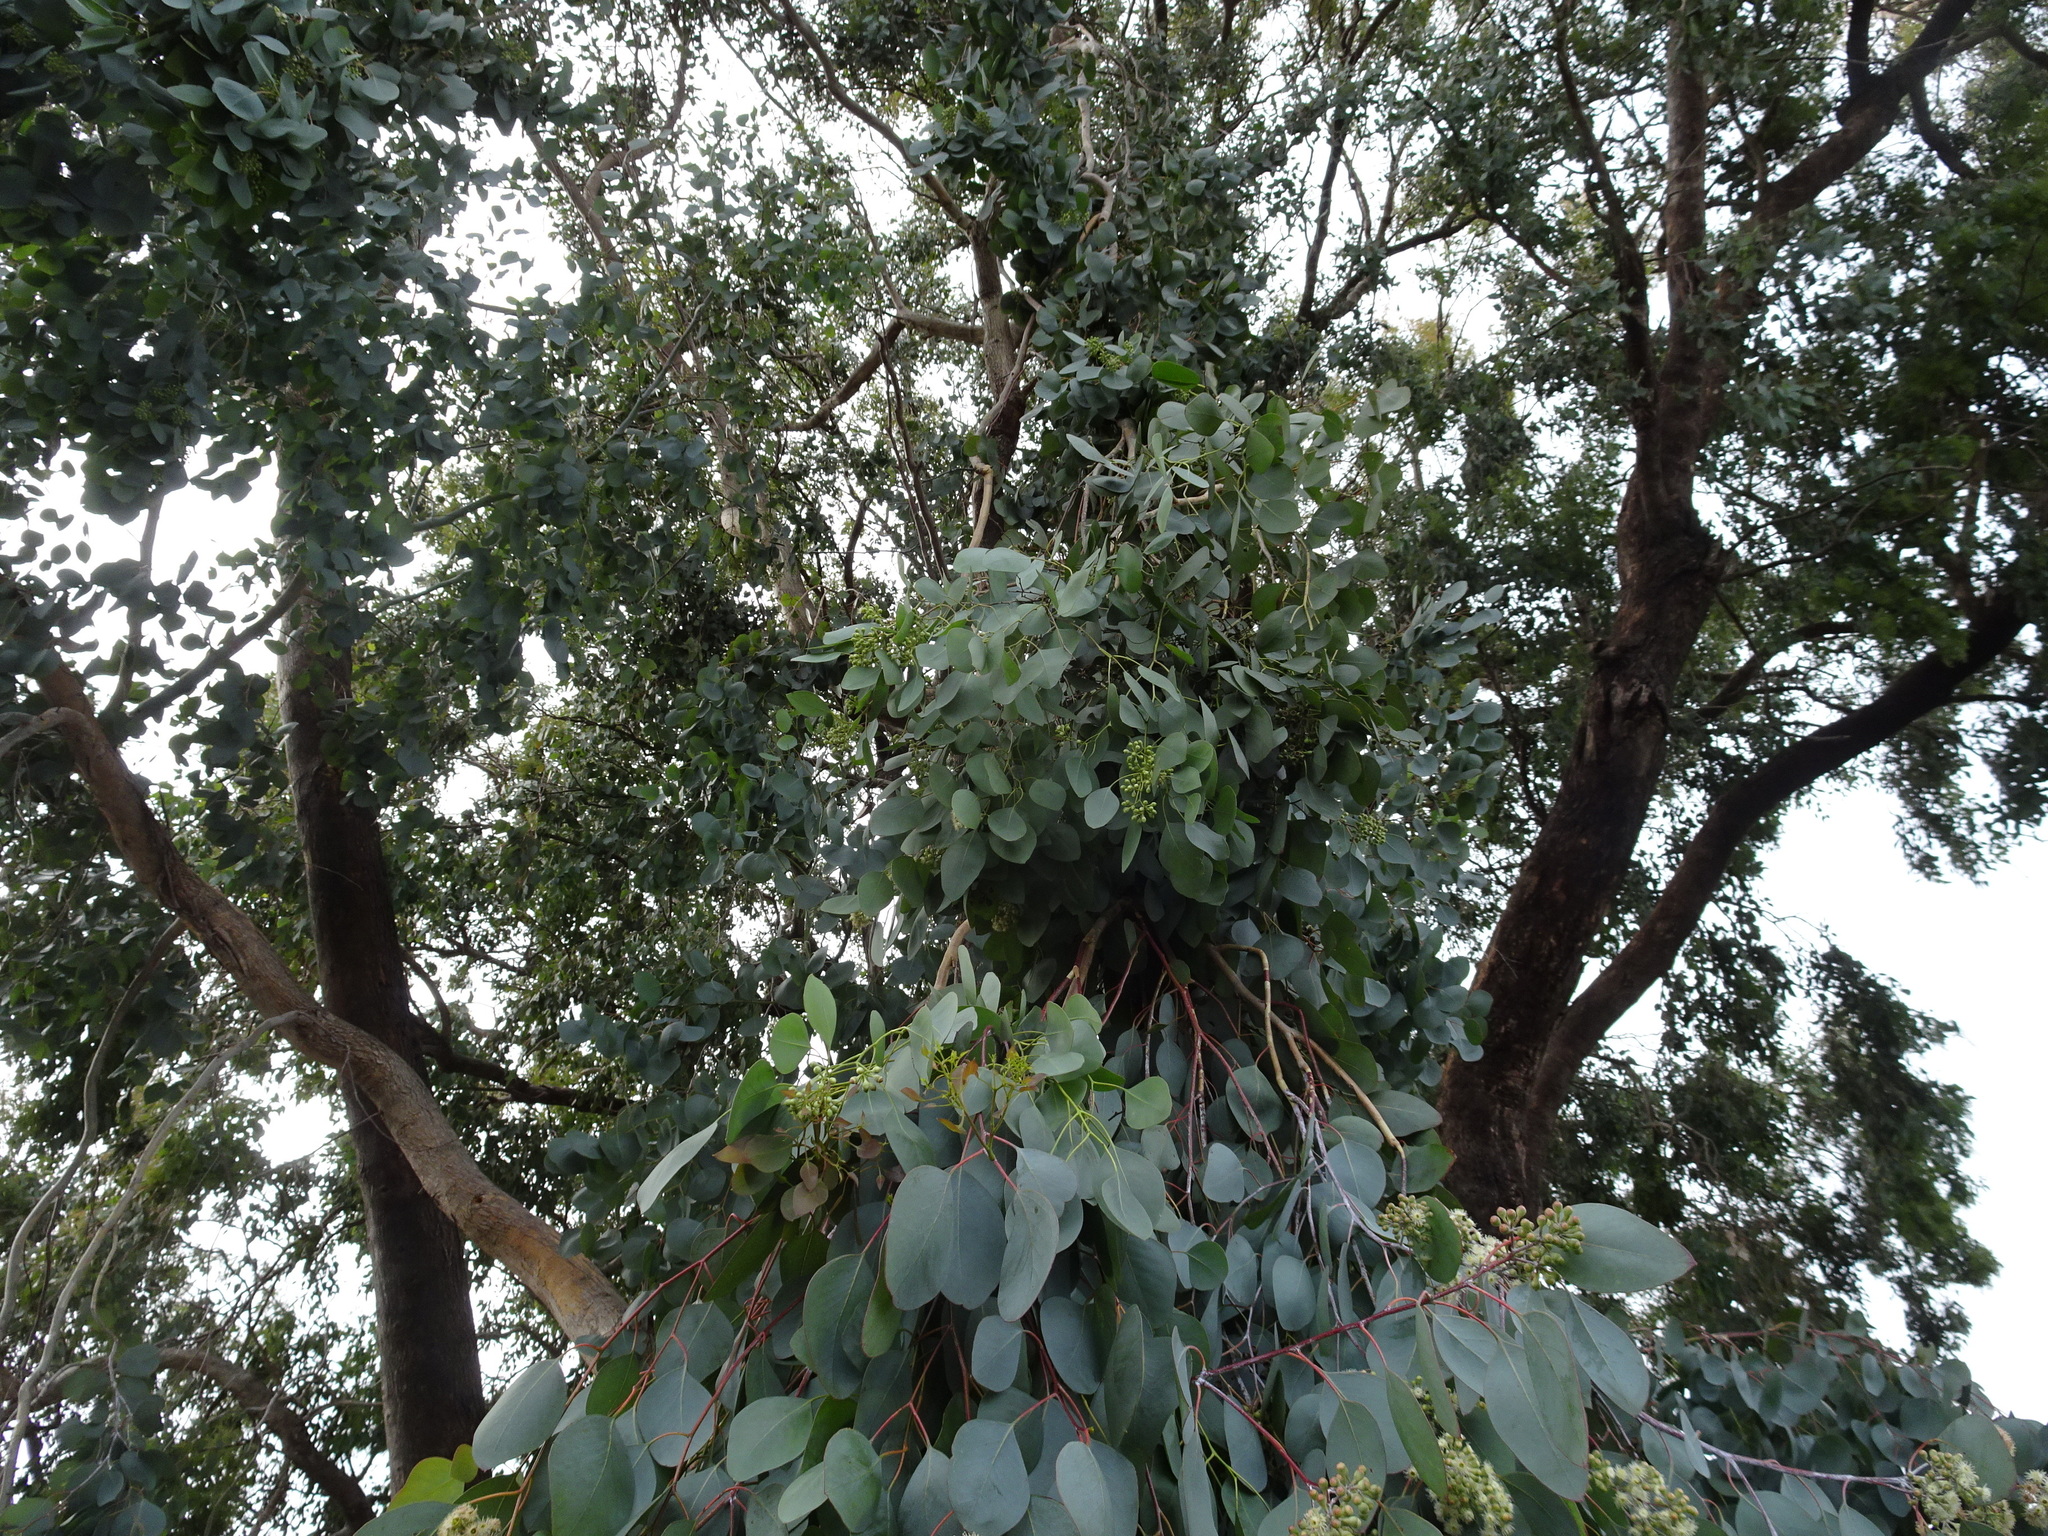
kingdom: Plantae
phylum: Tracheophyta
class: Magnoliopsida
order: Myrtales
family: Myrtaceae
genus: Eucalyptus
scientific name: Eucalyptus polyanthemos
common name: Red-box
